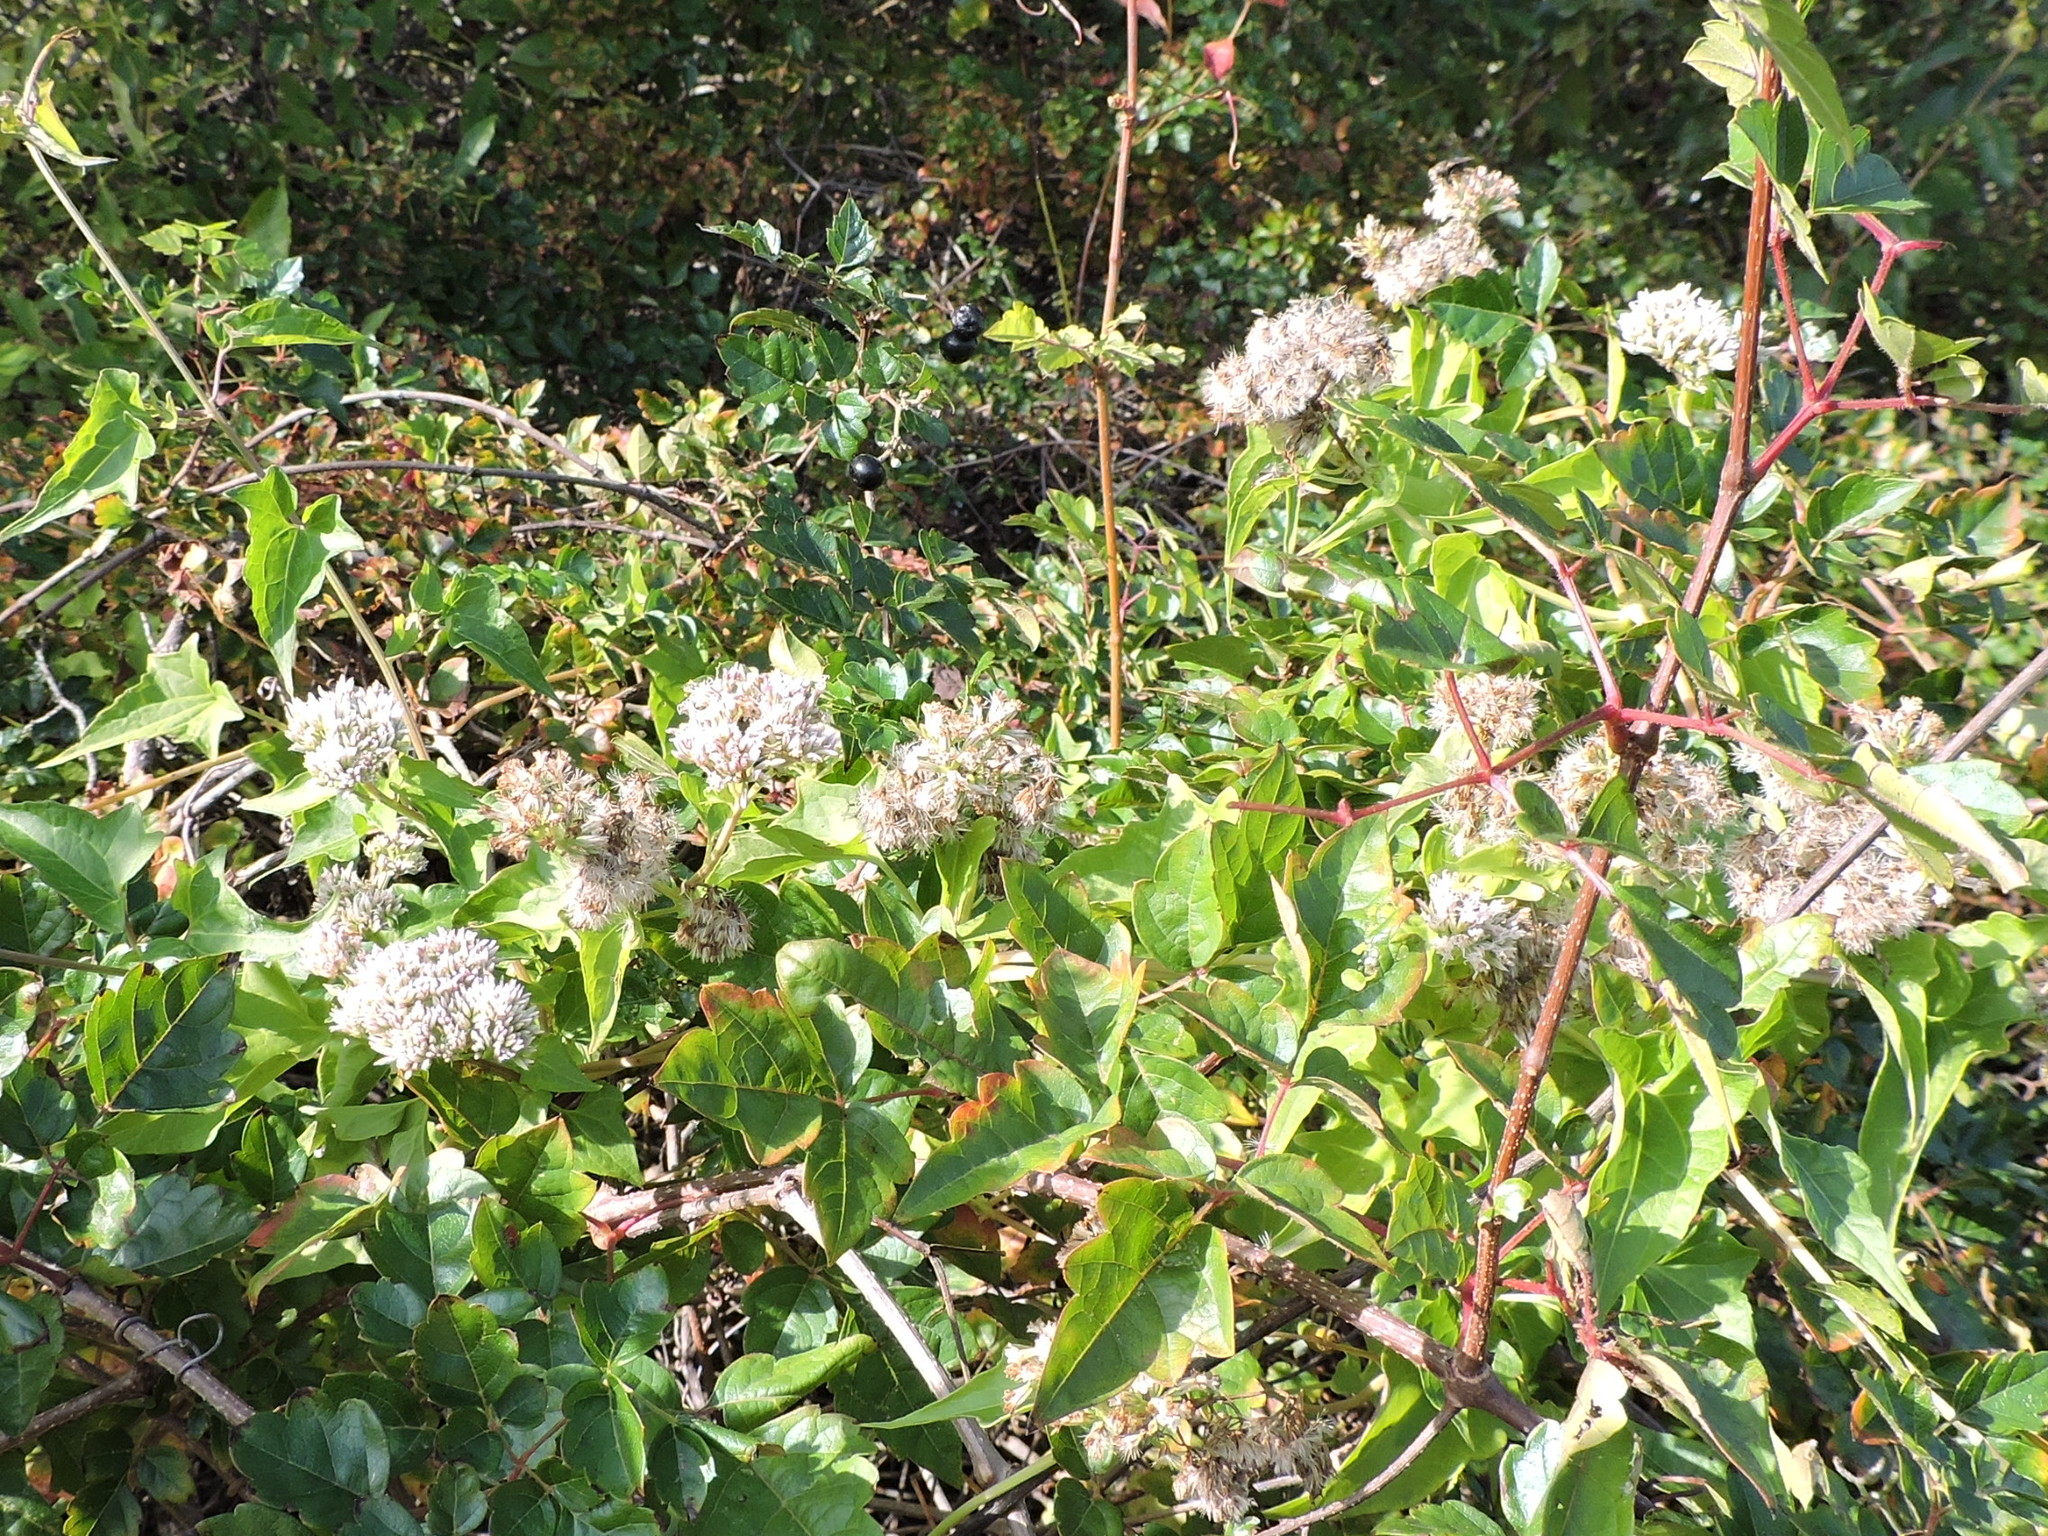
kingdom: Plantae
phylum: Tracheophyta
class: Magnoliopsida
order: Asterales
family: Asteraceae
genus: Mikania
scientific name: Mikania scandens
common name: Climbing hempvine
